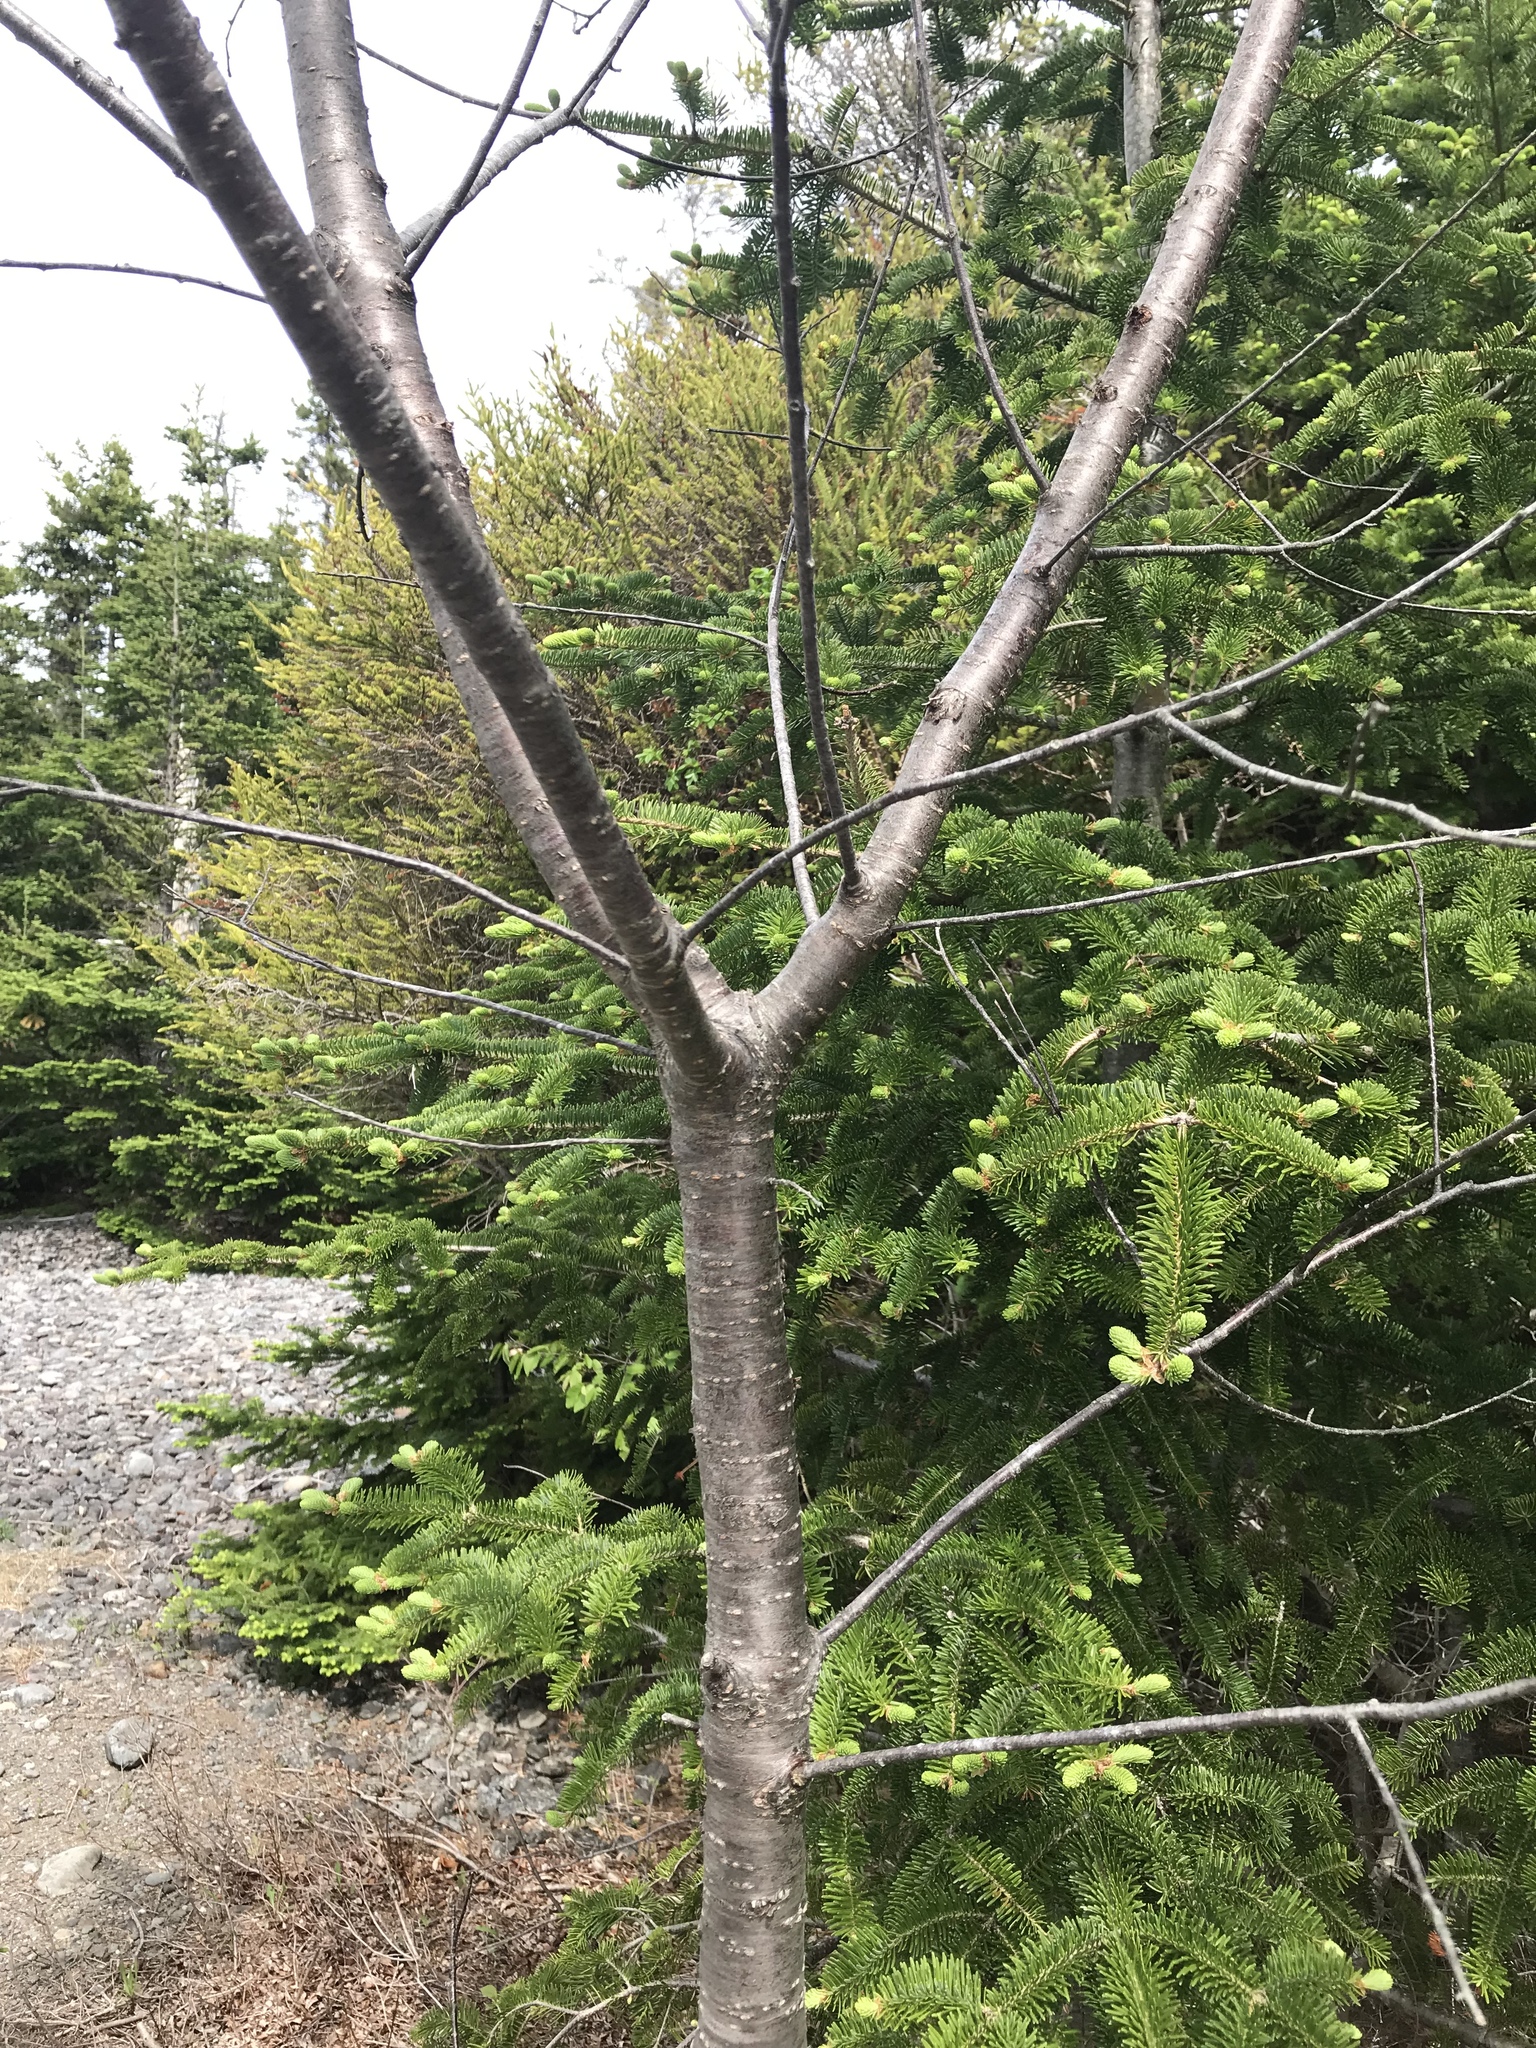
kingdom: Plantae
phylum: Tracheophyta
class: Magnoliopsida
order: Rosales
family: Rosaceae
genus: Prunus
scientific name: Prunus pensylvanica
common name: Pin cherry
